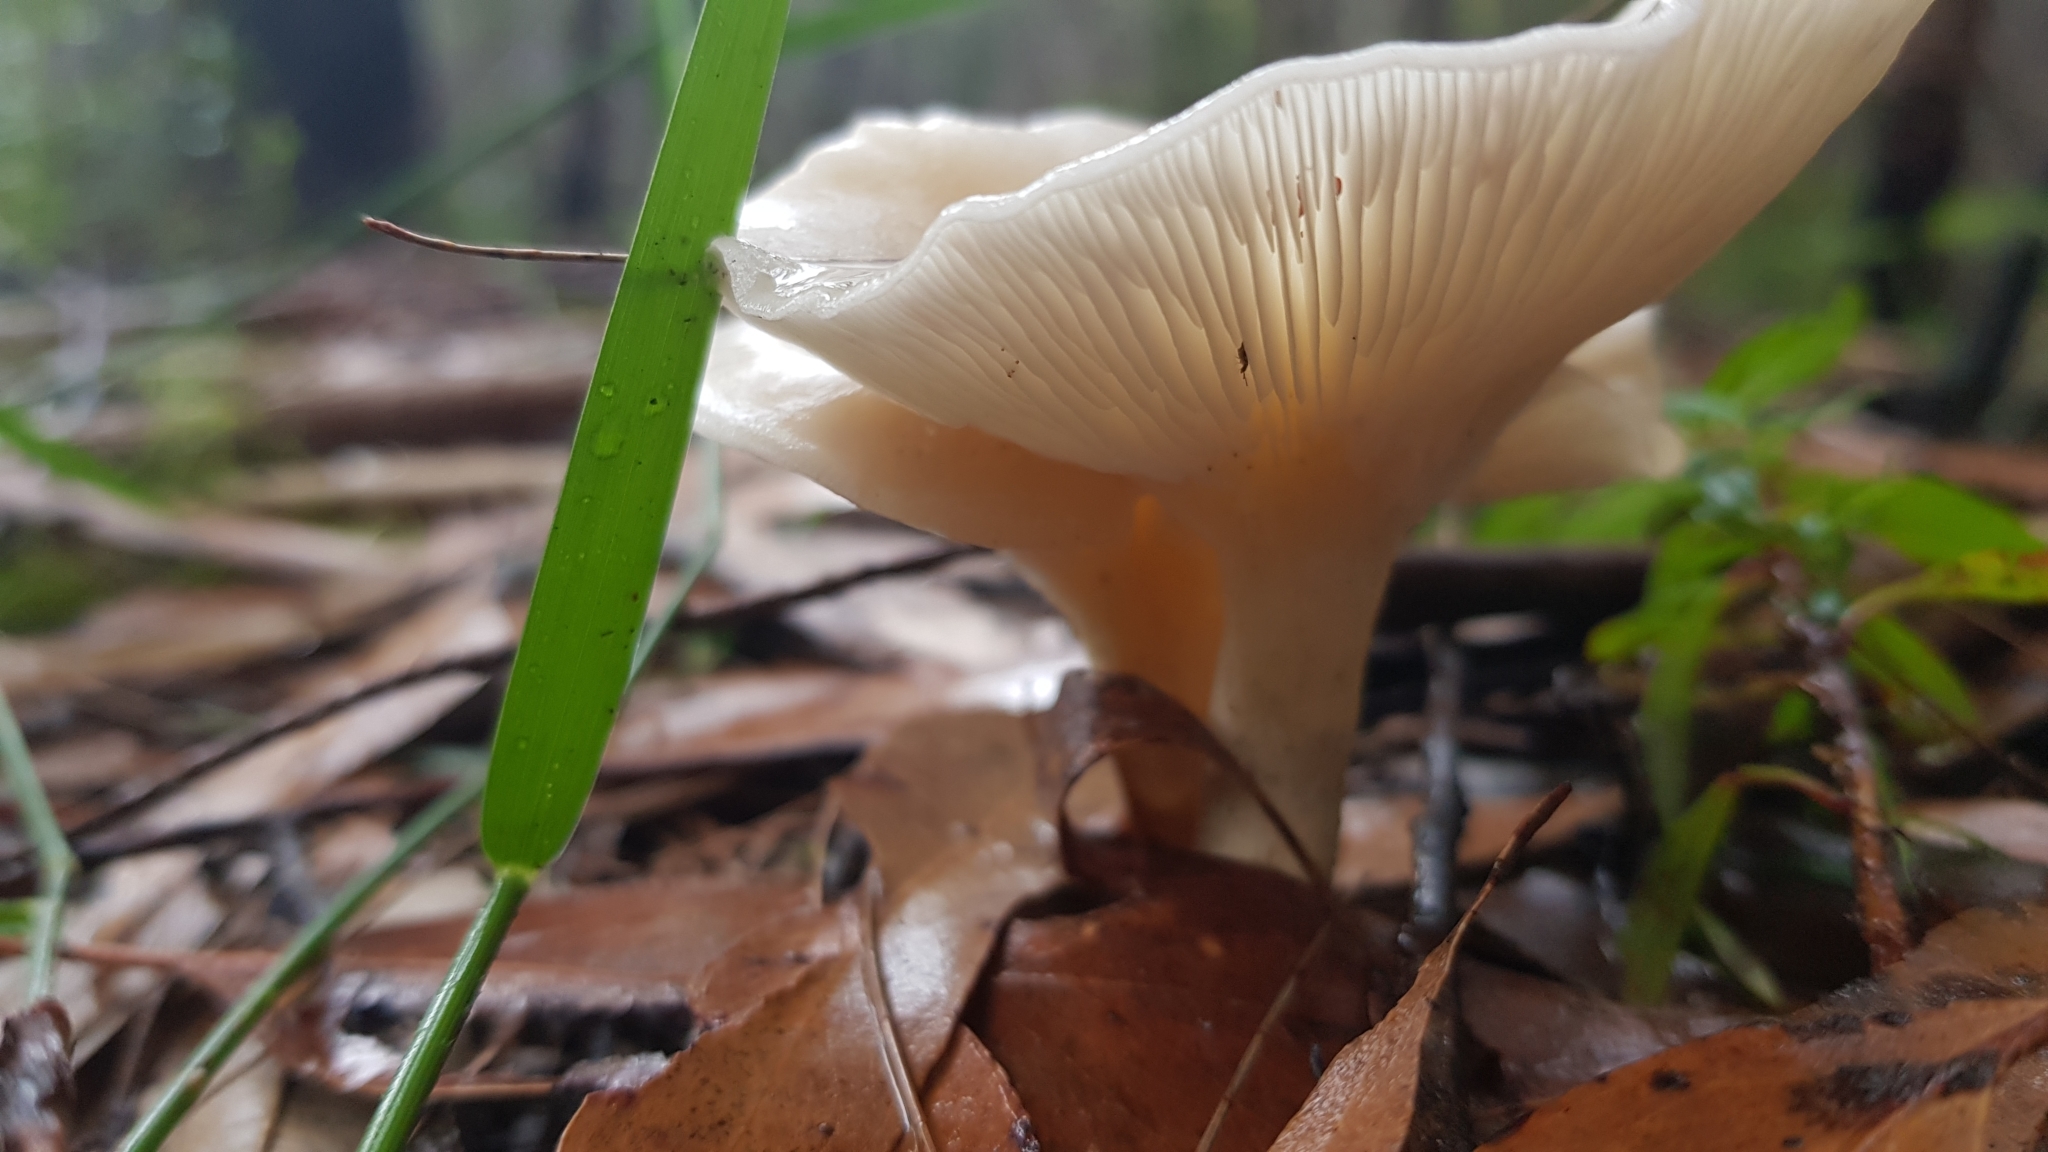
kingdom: Fungi
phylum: Basidiomycota
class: Agaricomycetes
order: Agaricales
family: Omphalotaceae
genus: Omphalotus
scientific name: Omphalotus nidiformis
